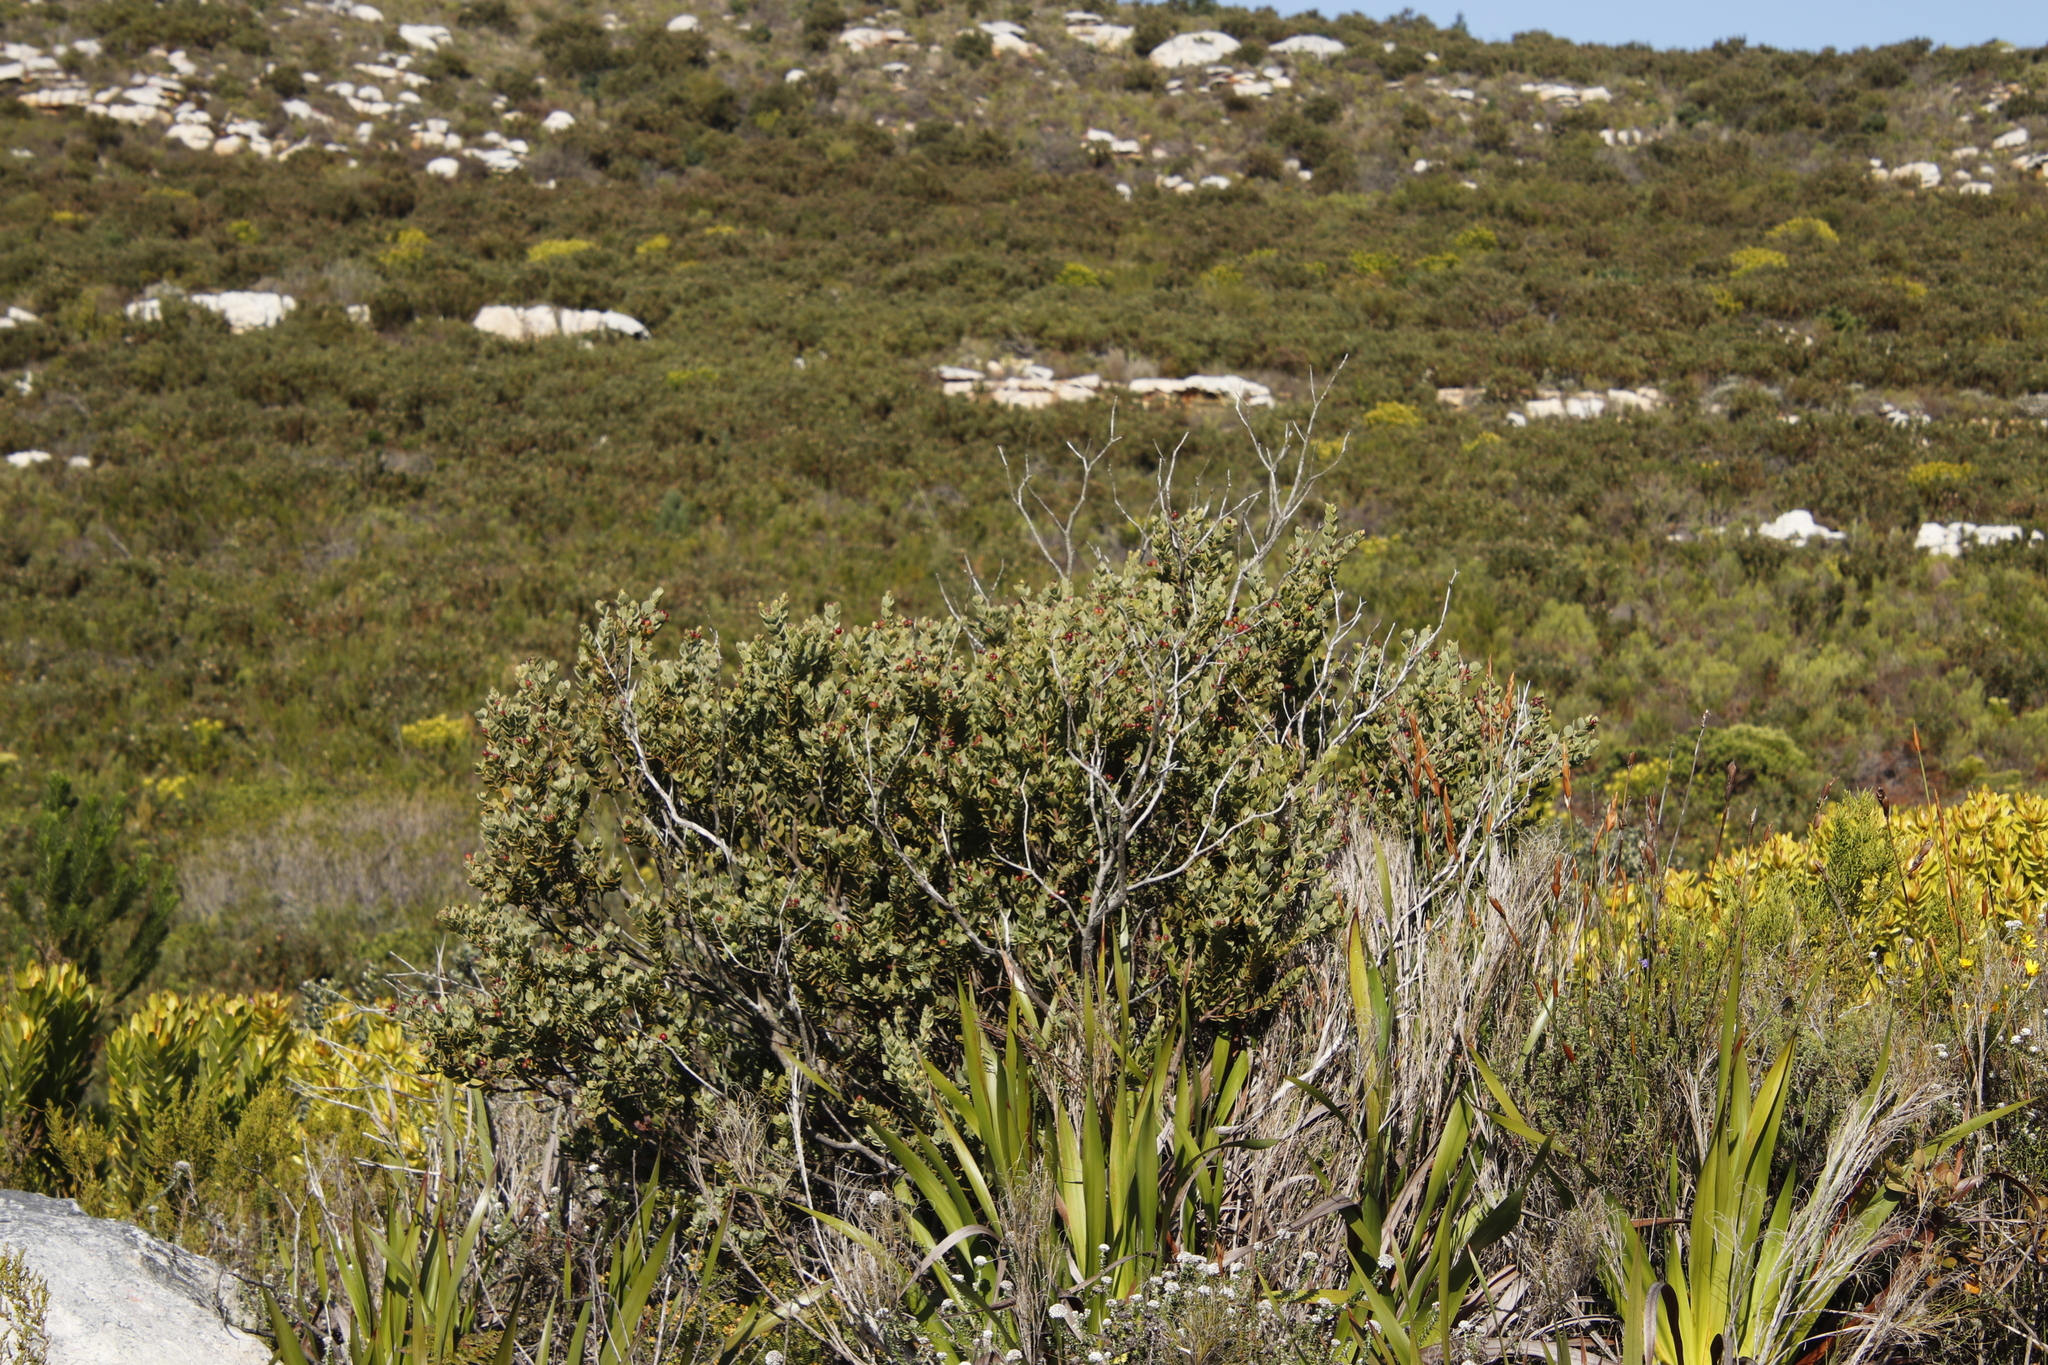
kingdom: Plantae
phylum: Tracheophyta
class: Magnoliopsida
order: Santalales
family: Santalaceae
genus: Osyris
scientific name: Osyris compressa
